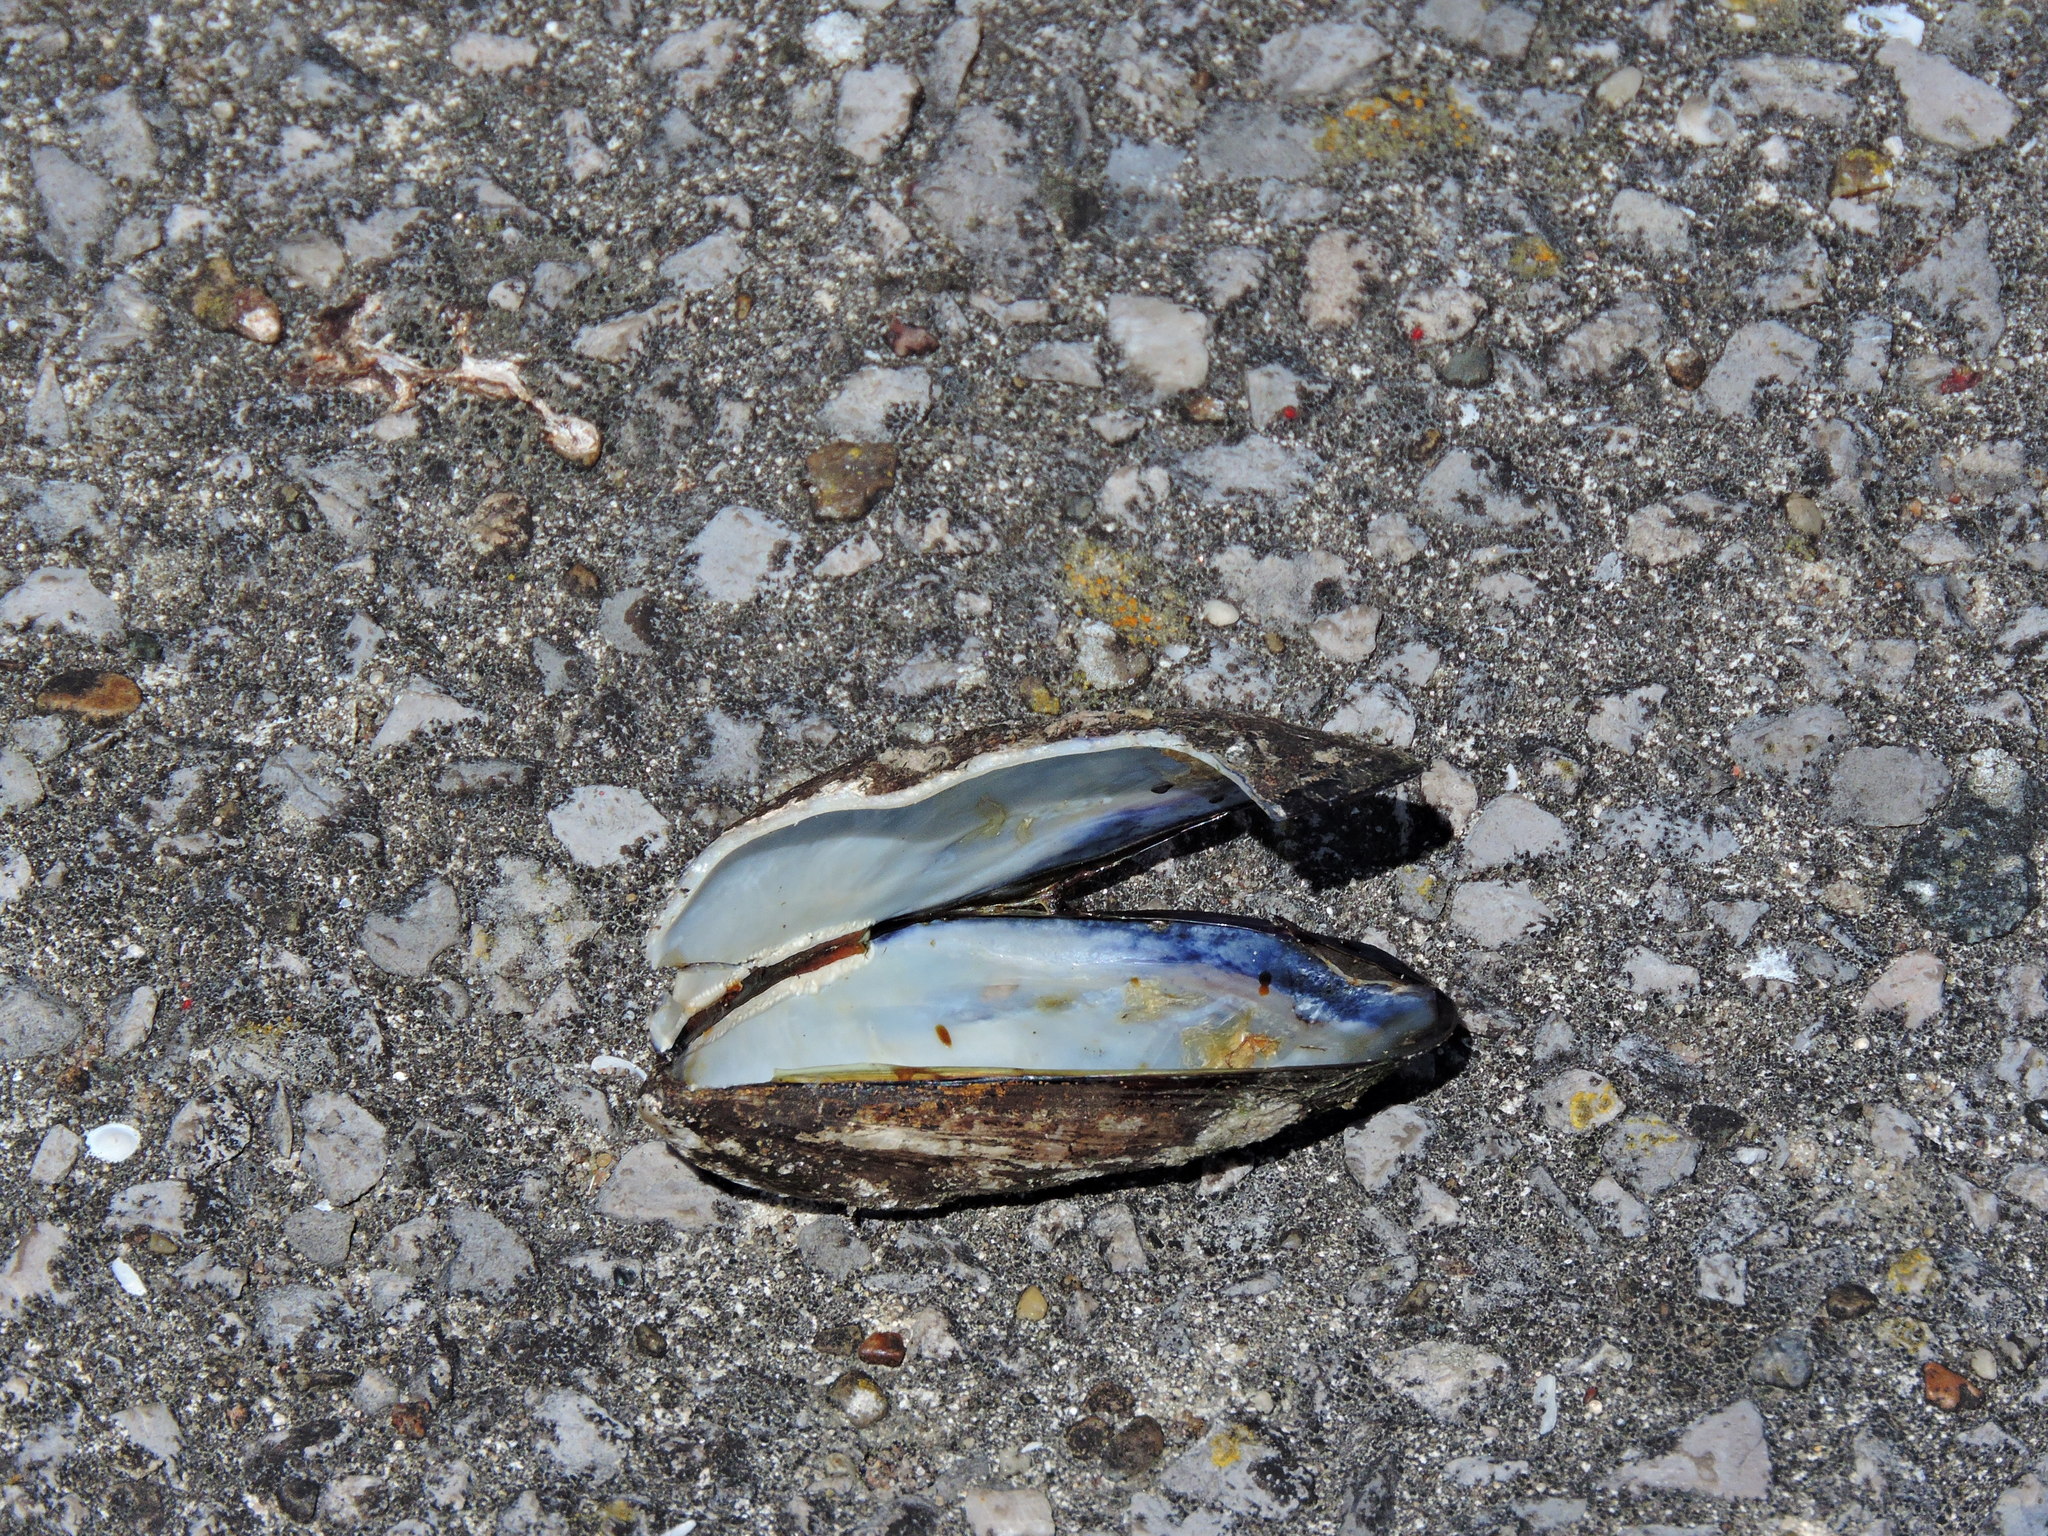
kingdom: Animalia
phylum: Mollusca
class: Bivalvia
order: Mytilida
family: Mytilidae
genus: Mytilus
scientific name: Mytilus edulis
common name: Blue mussel
